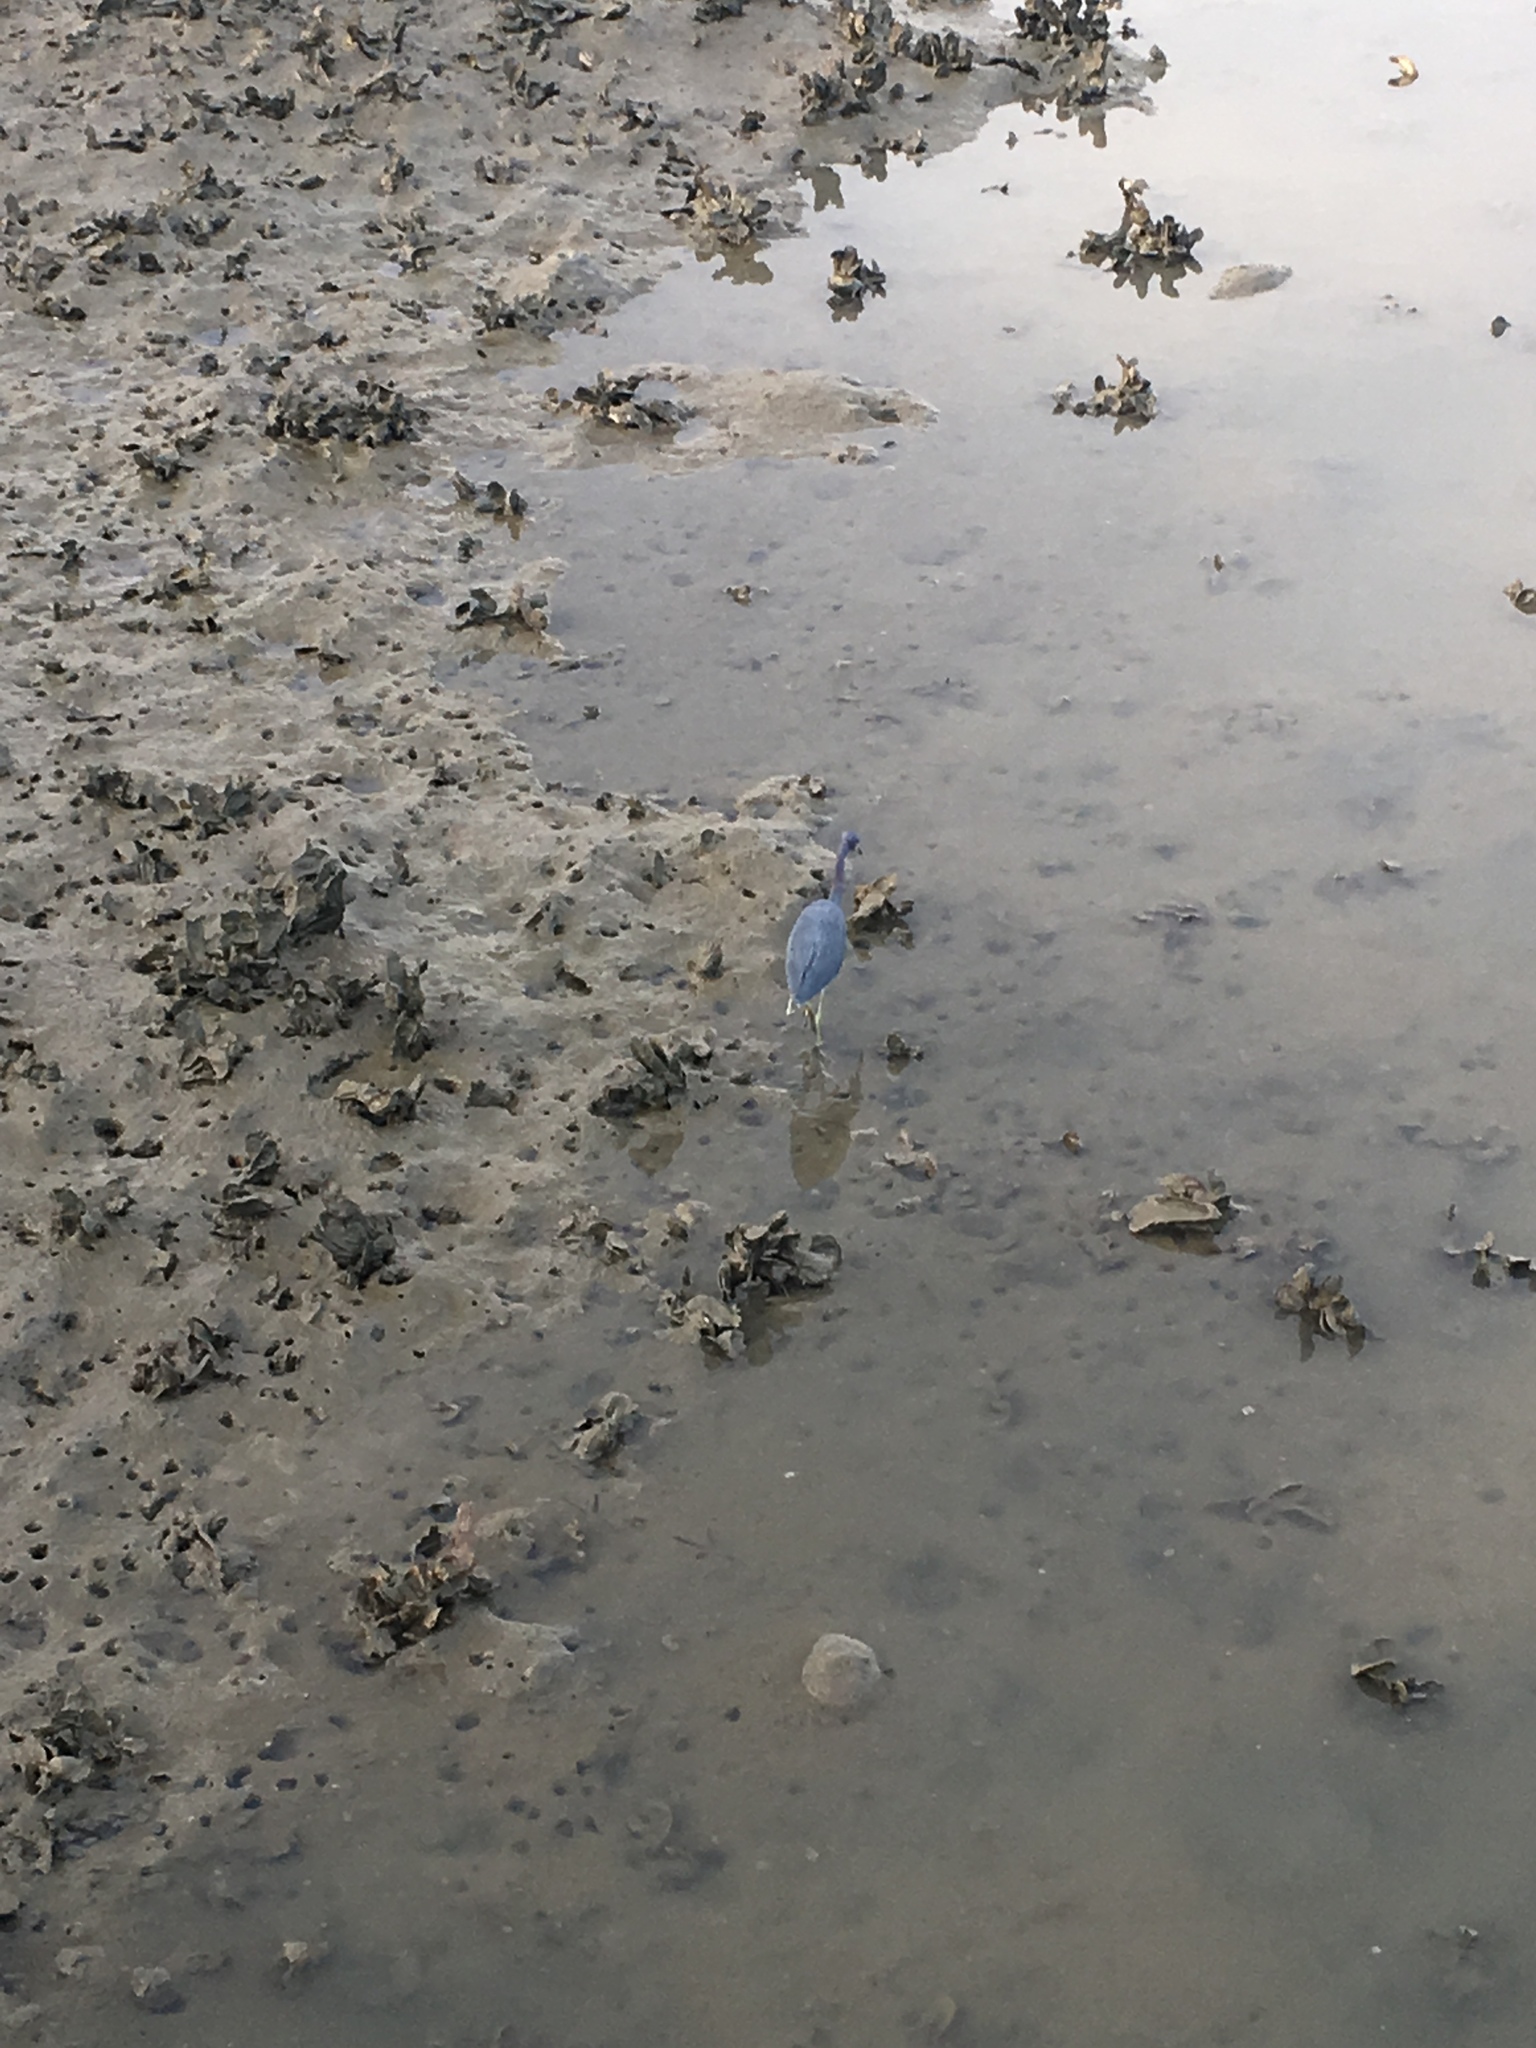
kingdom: Animalia
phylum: Chordata
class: Aves
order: Pelecaniformes
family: Ardeidae
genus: Egretta
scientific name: Egretta tricolor
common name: Tricolored heron
